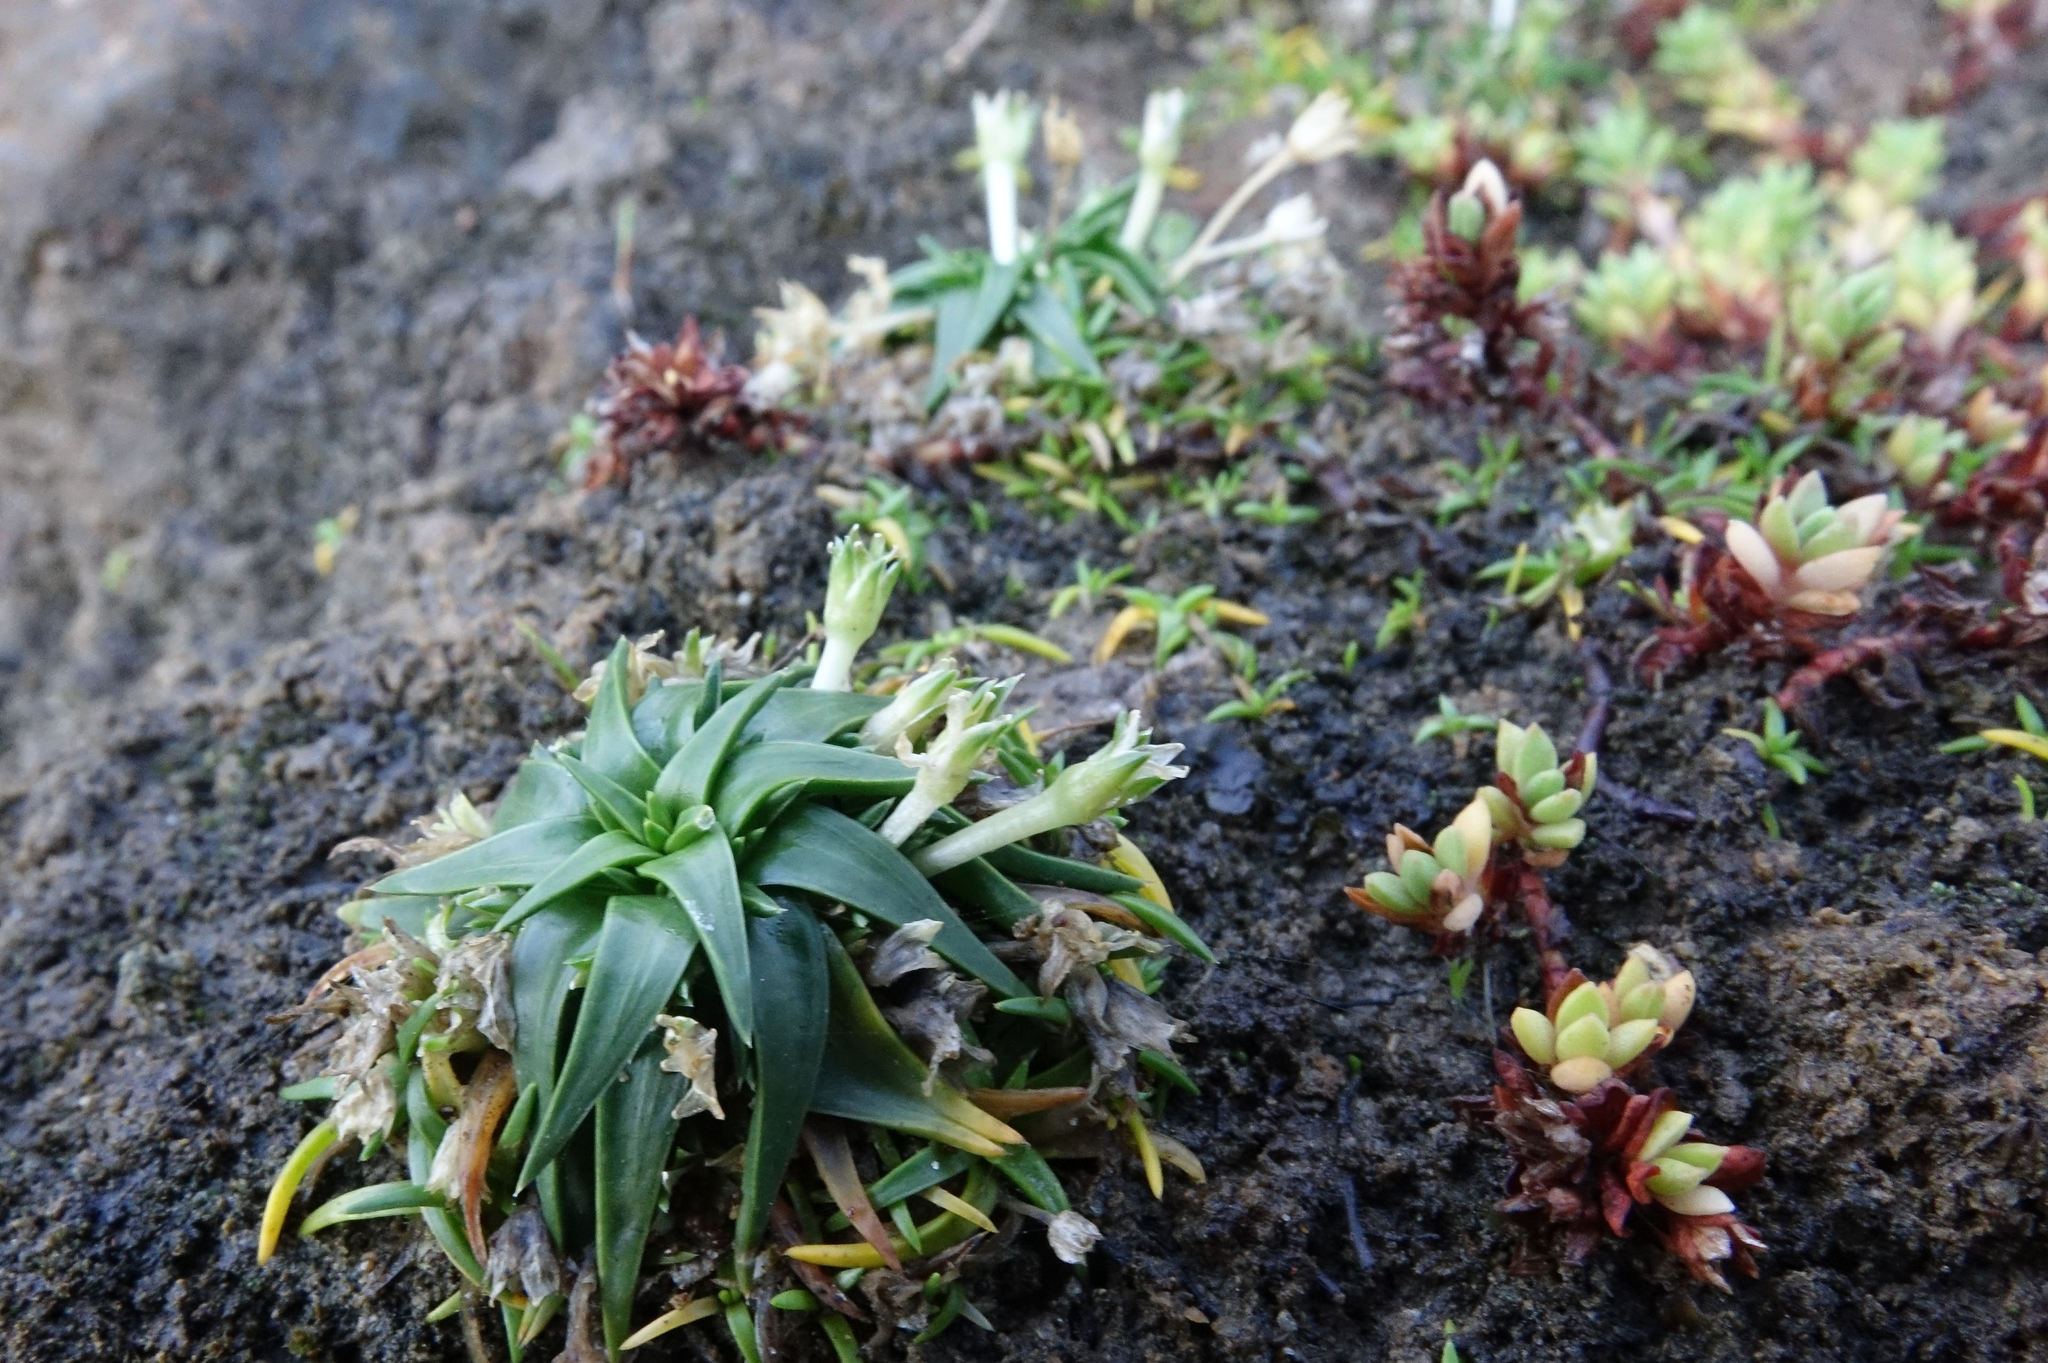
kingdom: Plantae
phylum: Tracheophyta
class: Magnoliopsida
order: Caryophyllales
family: Caryophyllaceae
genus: Colobanthus
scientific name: Colobanthus muelleri
